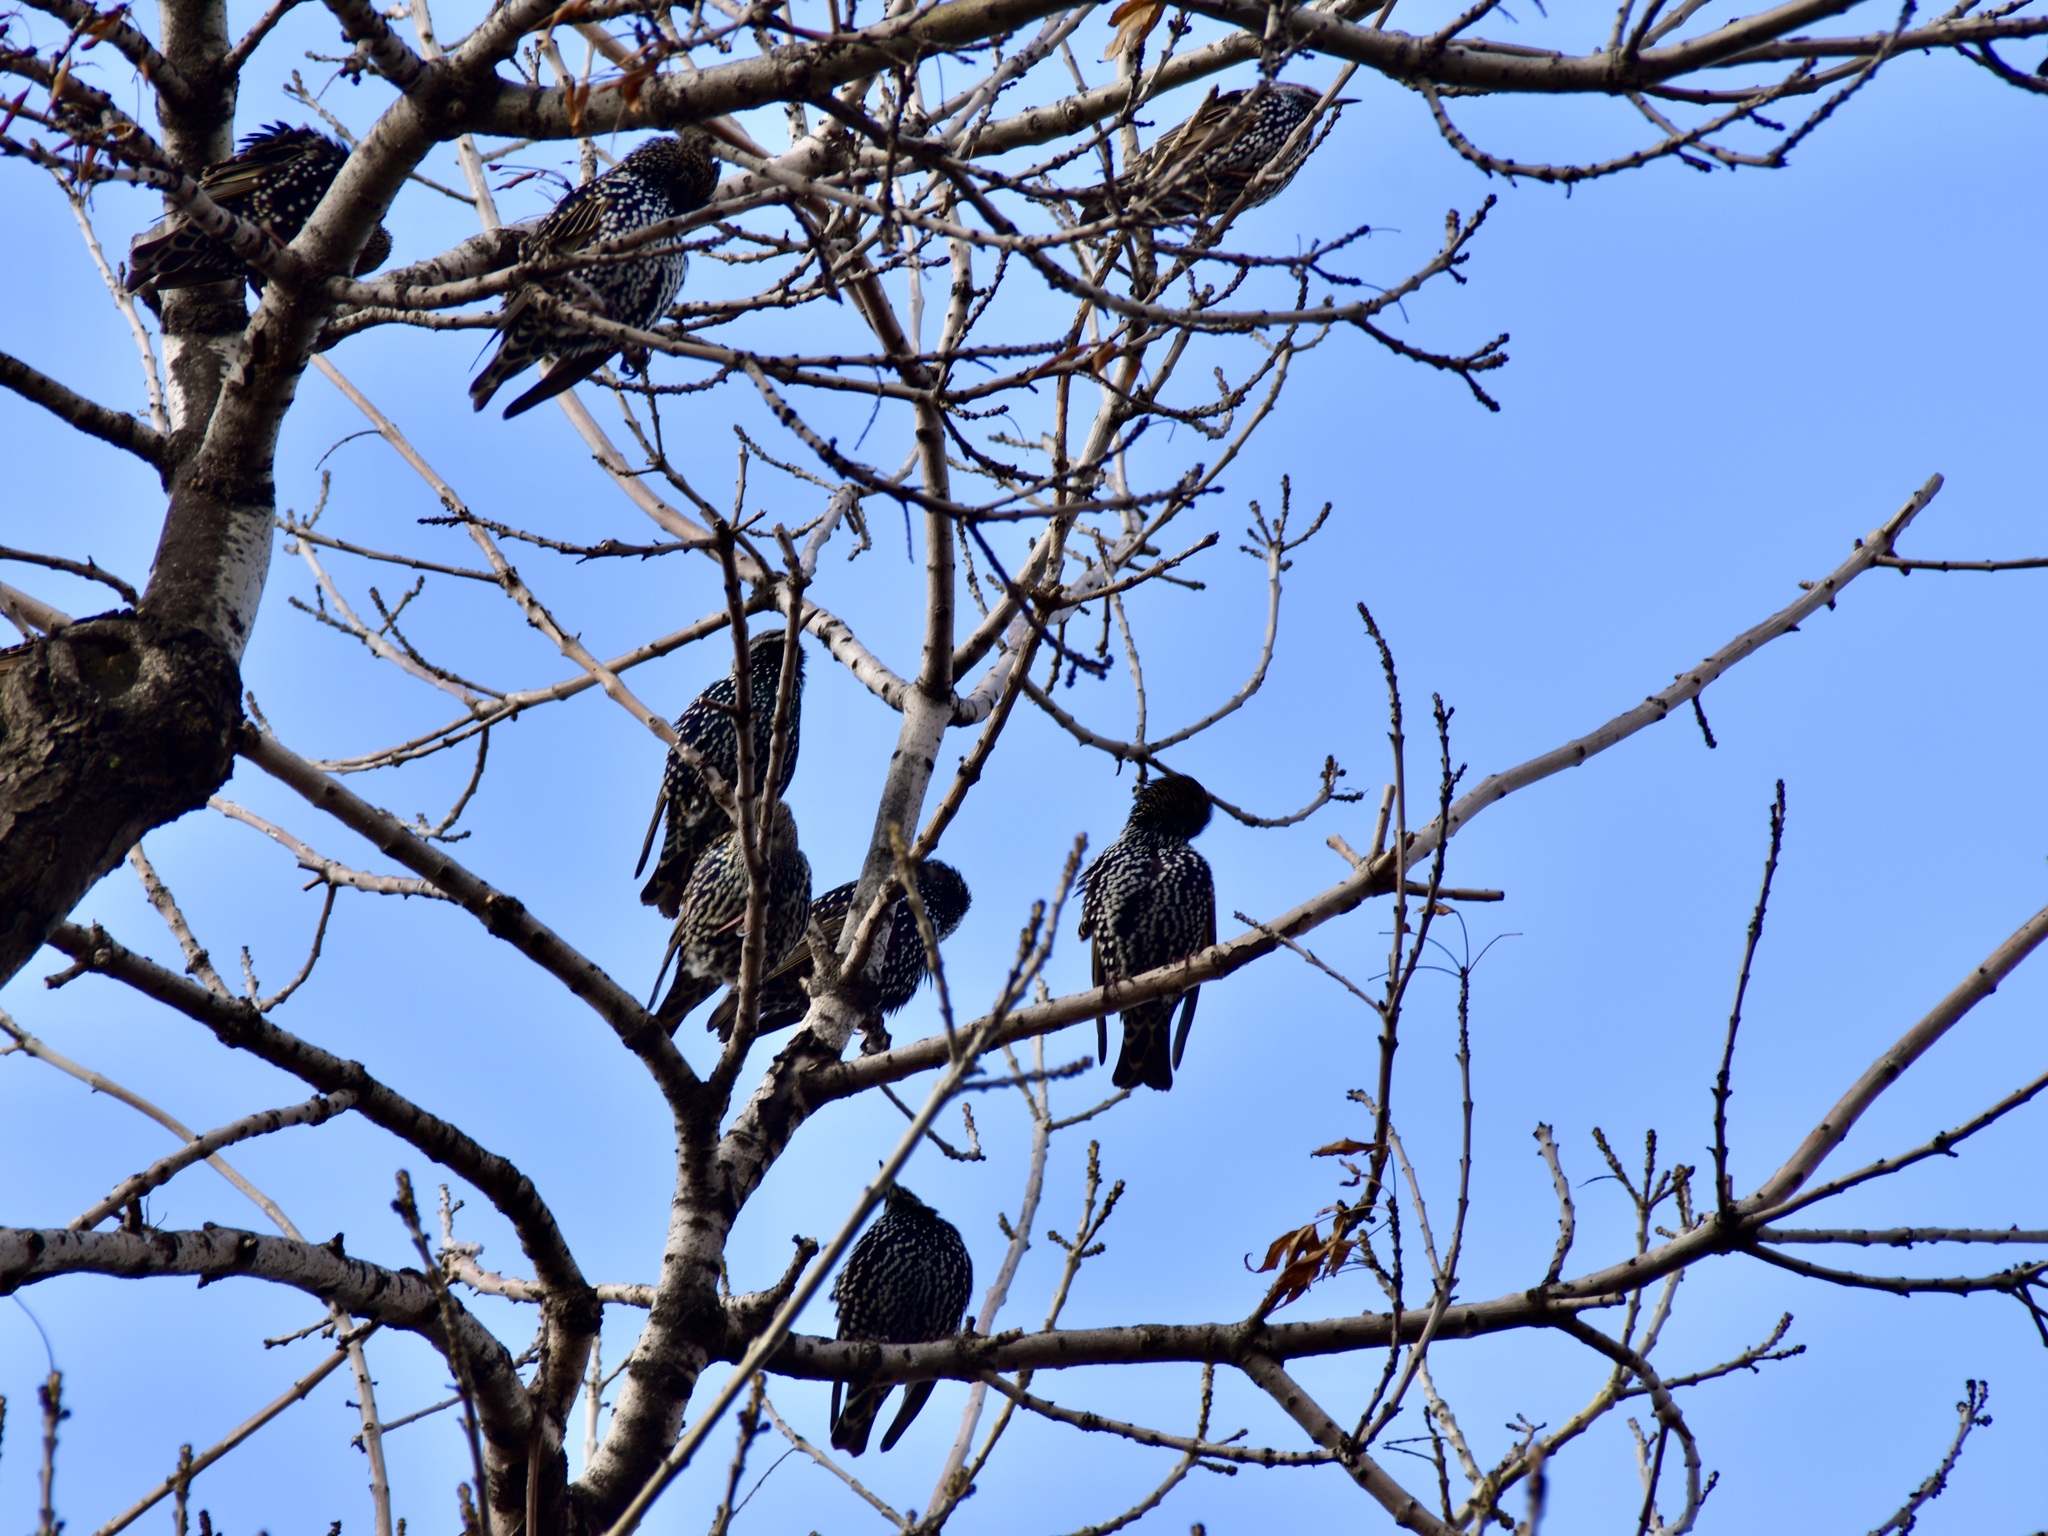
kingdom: Animalia
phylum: Chordata
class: Aves
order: Passeriformes
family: Sturnidae
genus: Sturnus
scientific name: Sturnus vulgaris
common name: Common starling
